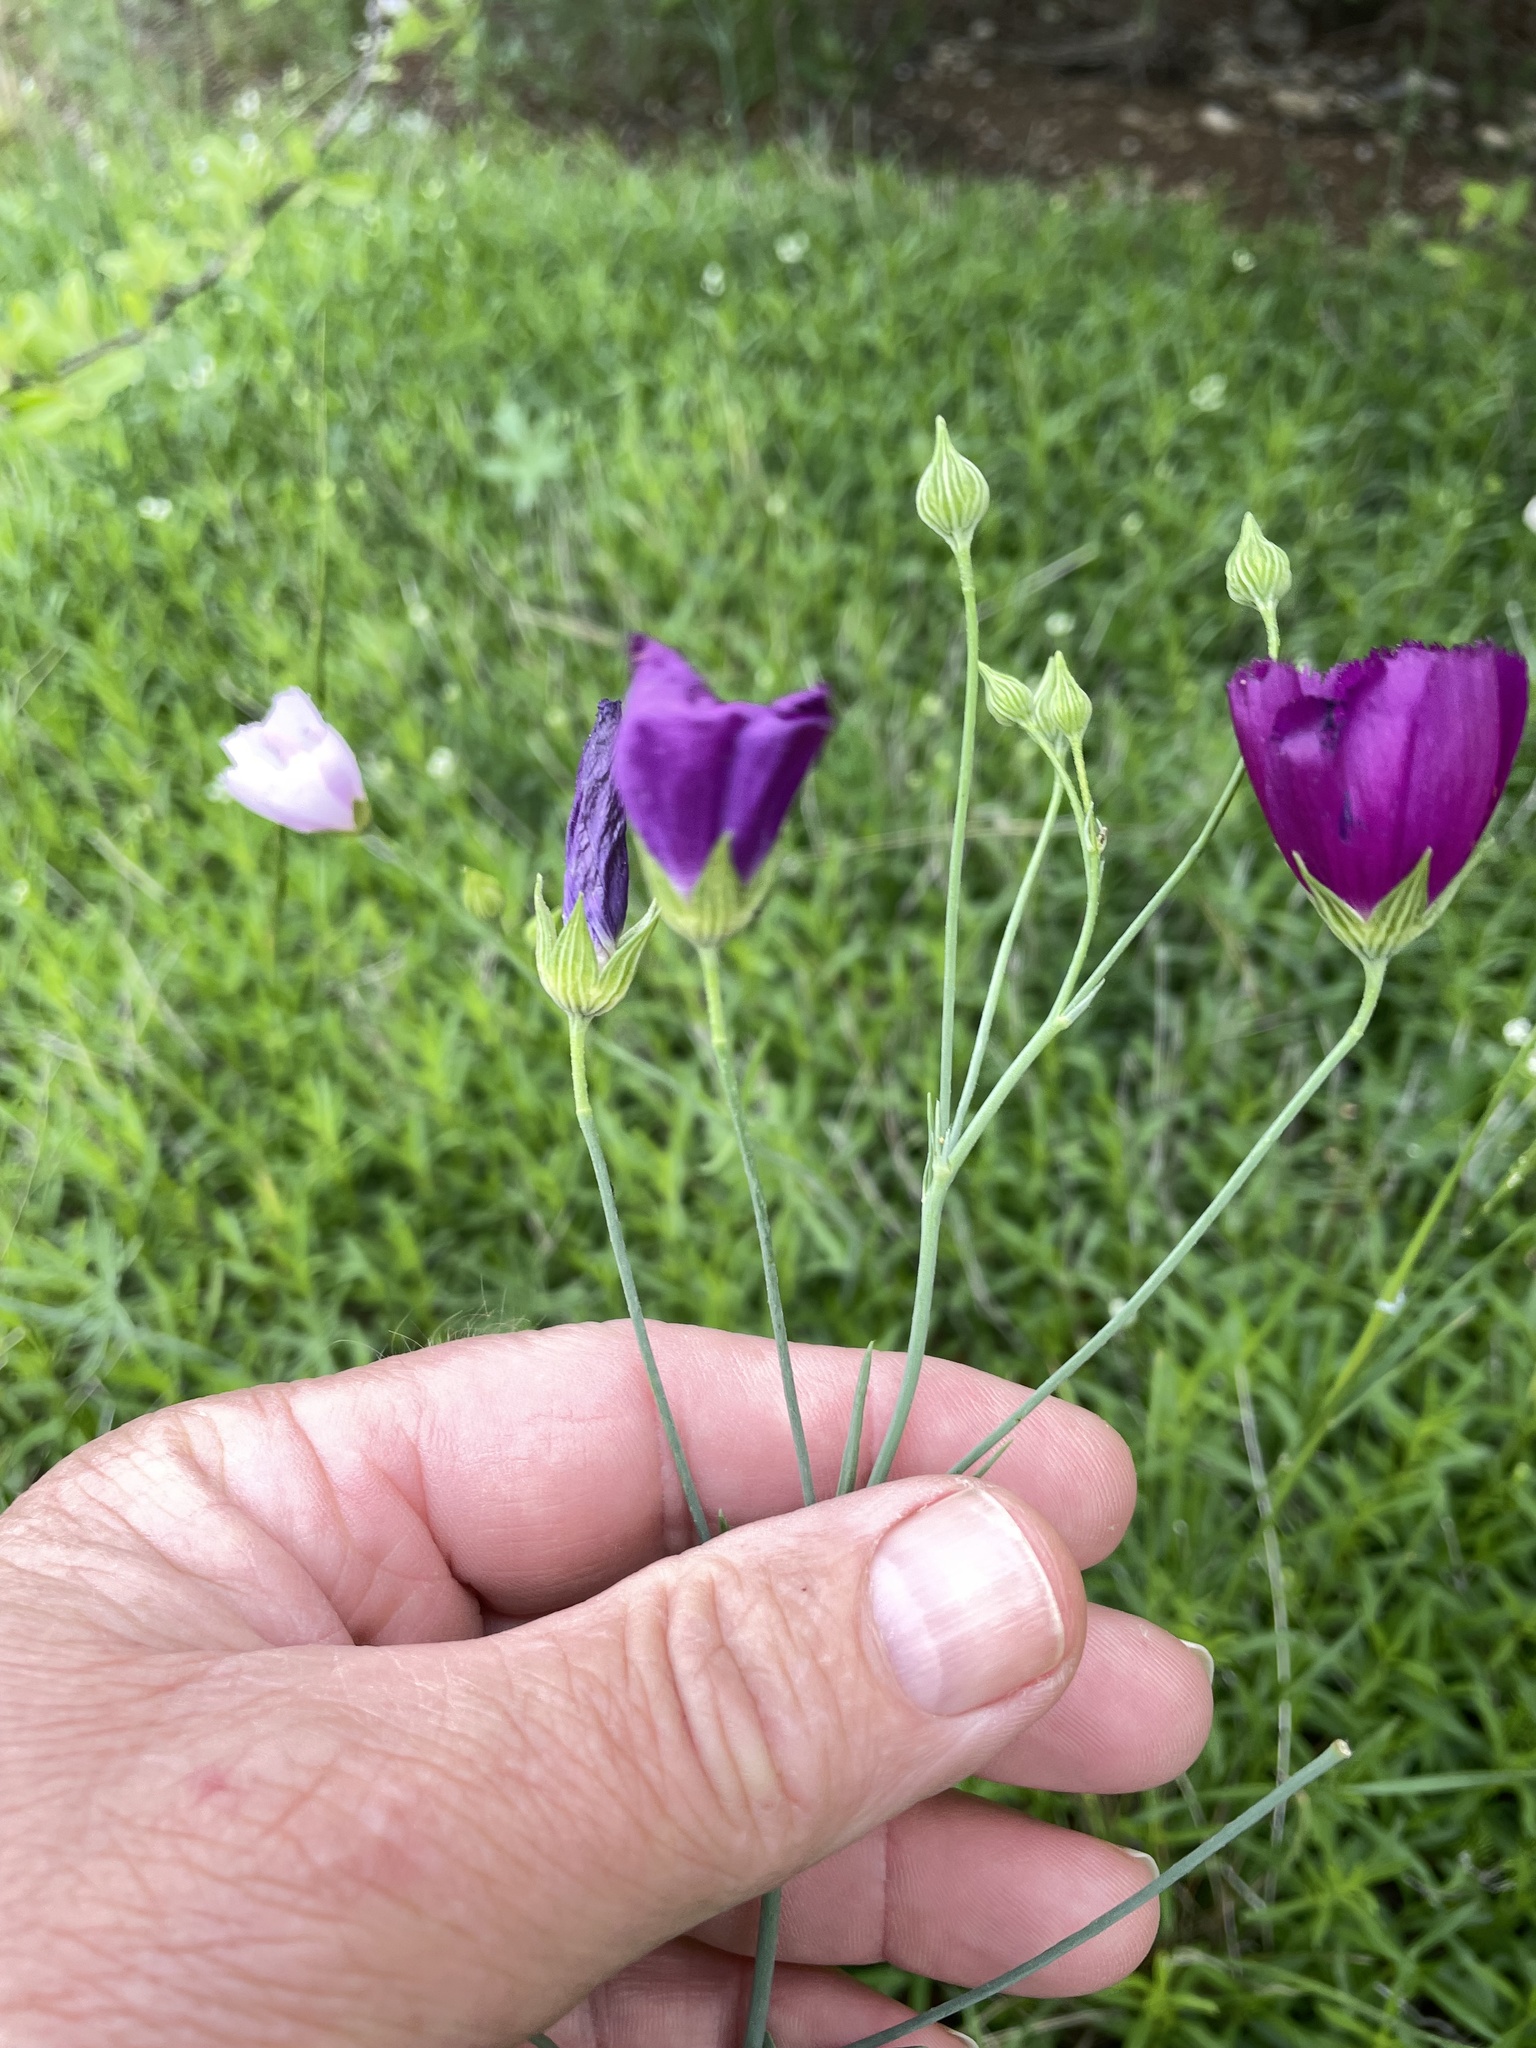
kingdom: Plantae
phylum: Tracheophyta
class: Magnoliopsida
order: Malvales
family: Malvaceae
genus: Callirhoe
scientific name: Callirhoe pedata
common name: Finger poppy-mallow
